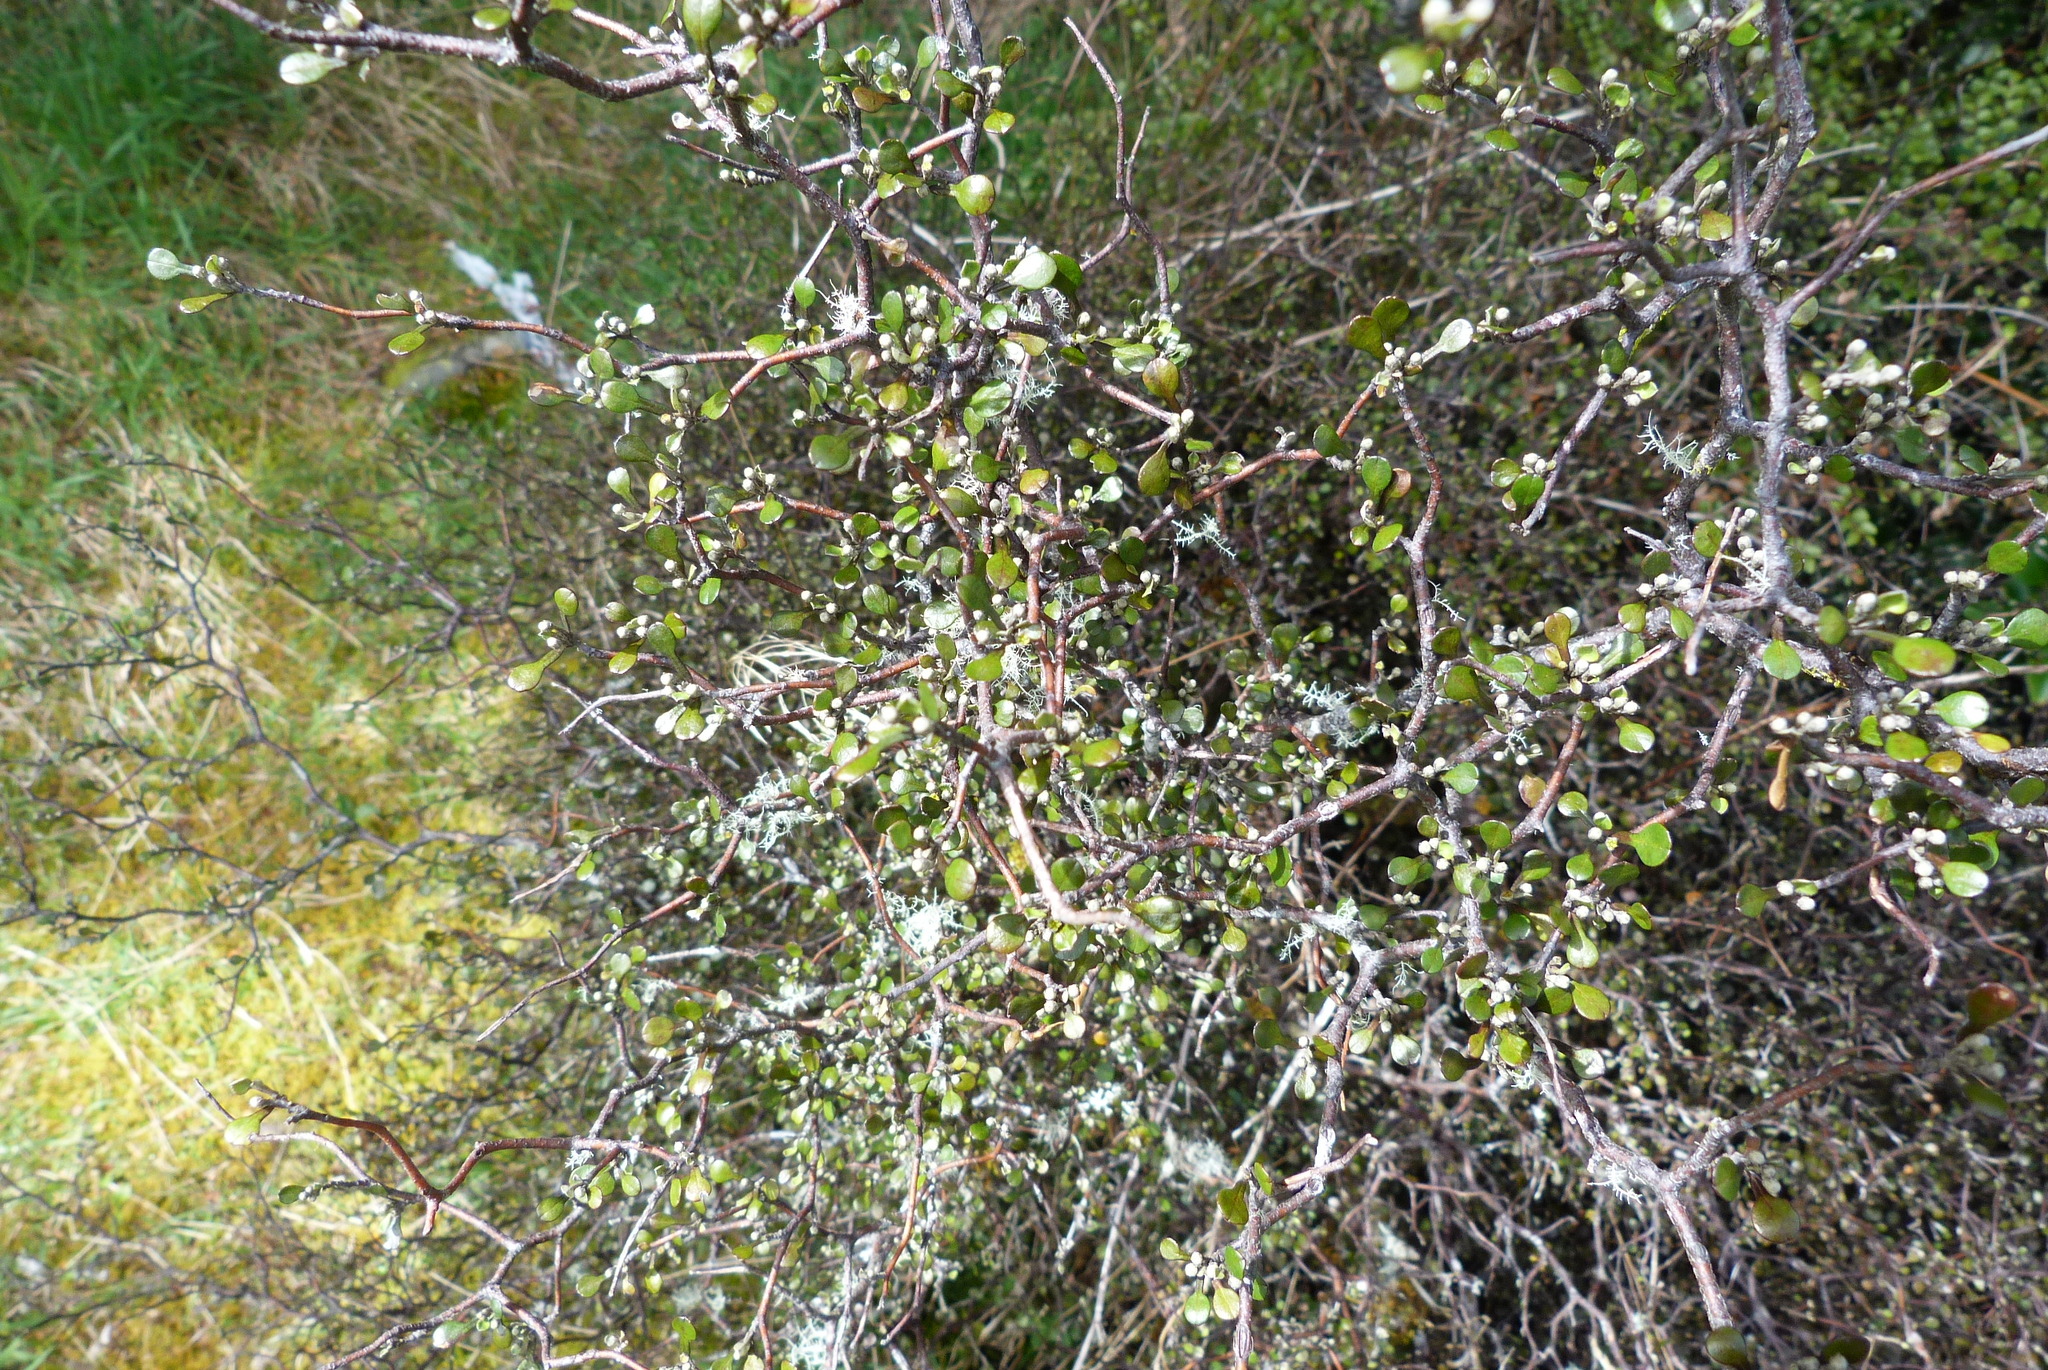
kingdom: Plantae
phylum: Tracheophyta
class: Magnoliopsida
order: Asterales
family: Argophyllaceae
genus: Corokia
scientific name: Corokia cotoneaster
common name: Wire nettingbush
